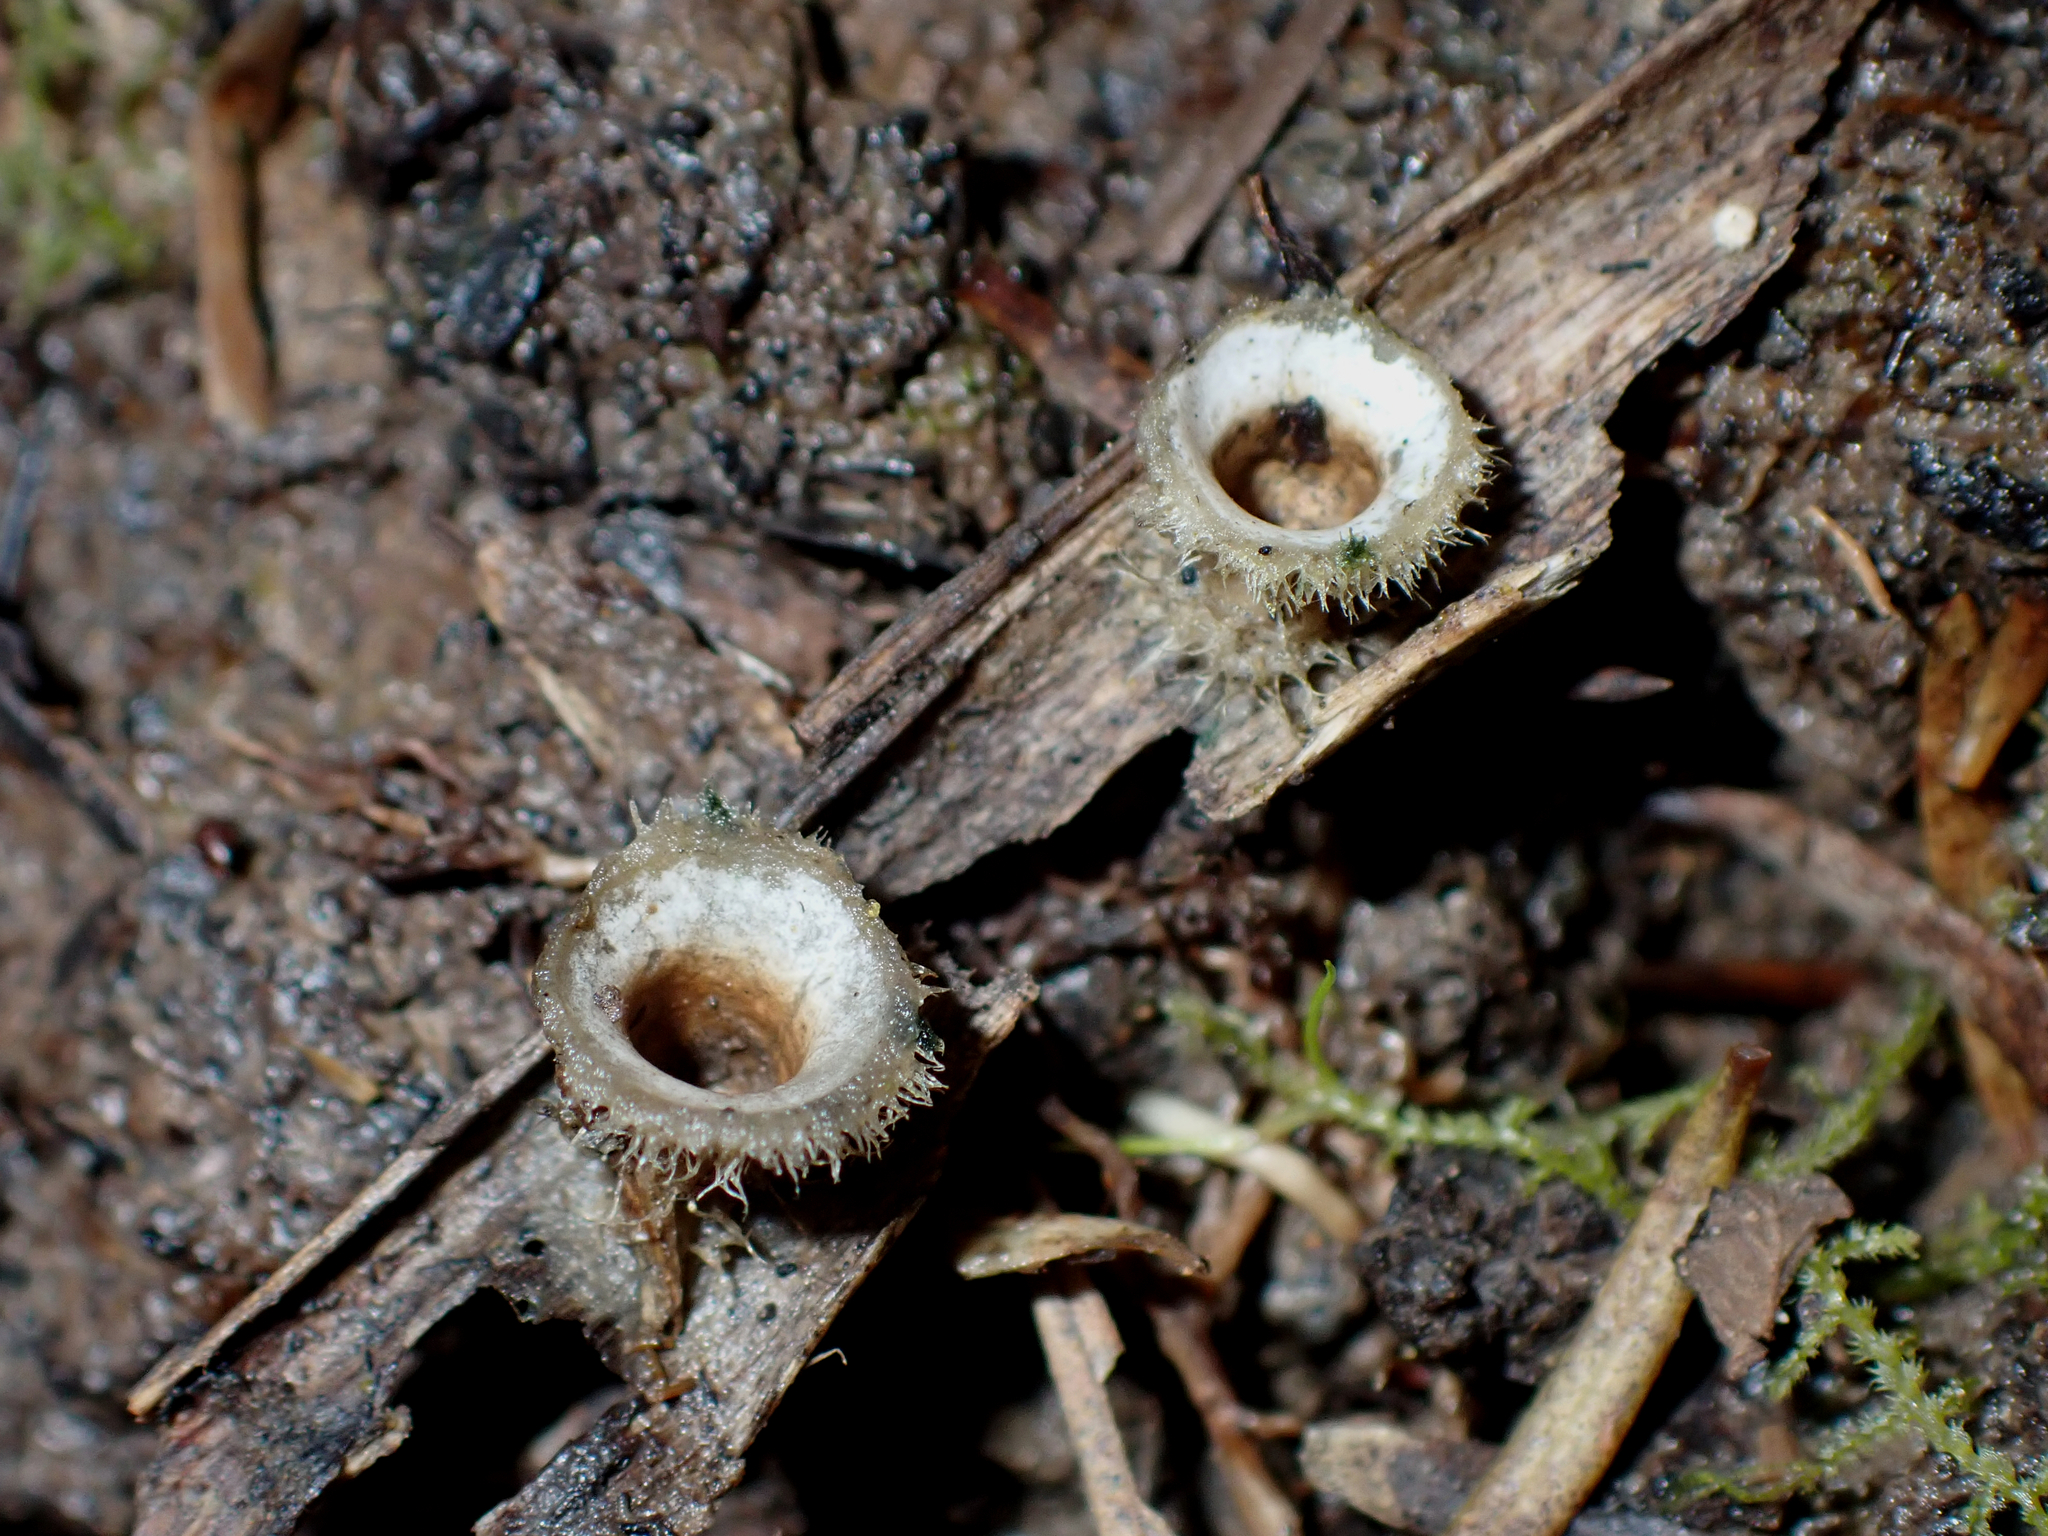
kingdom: Fungi
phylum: Basidiomycota
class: Agaricomycetes
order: Agaricales
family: Agaricaceae
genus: Nidula
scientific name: Nidula niveotomentosa
